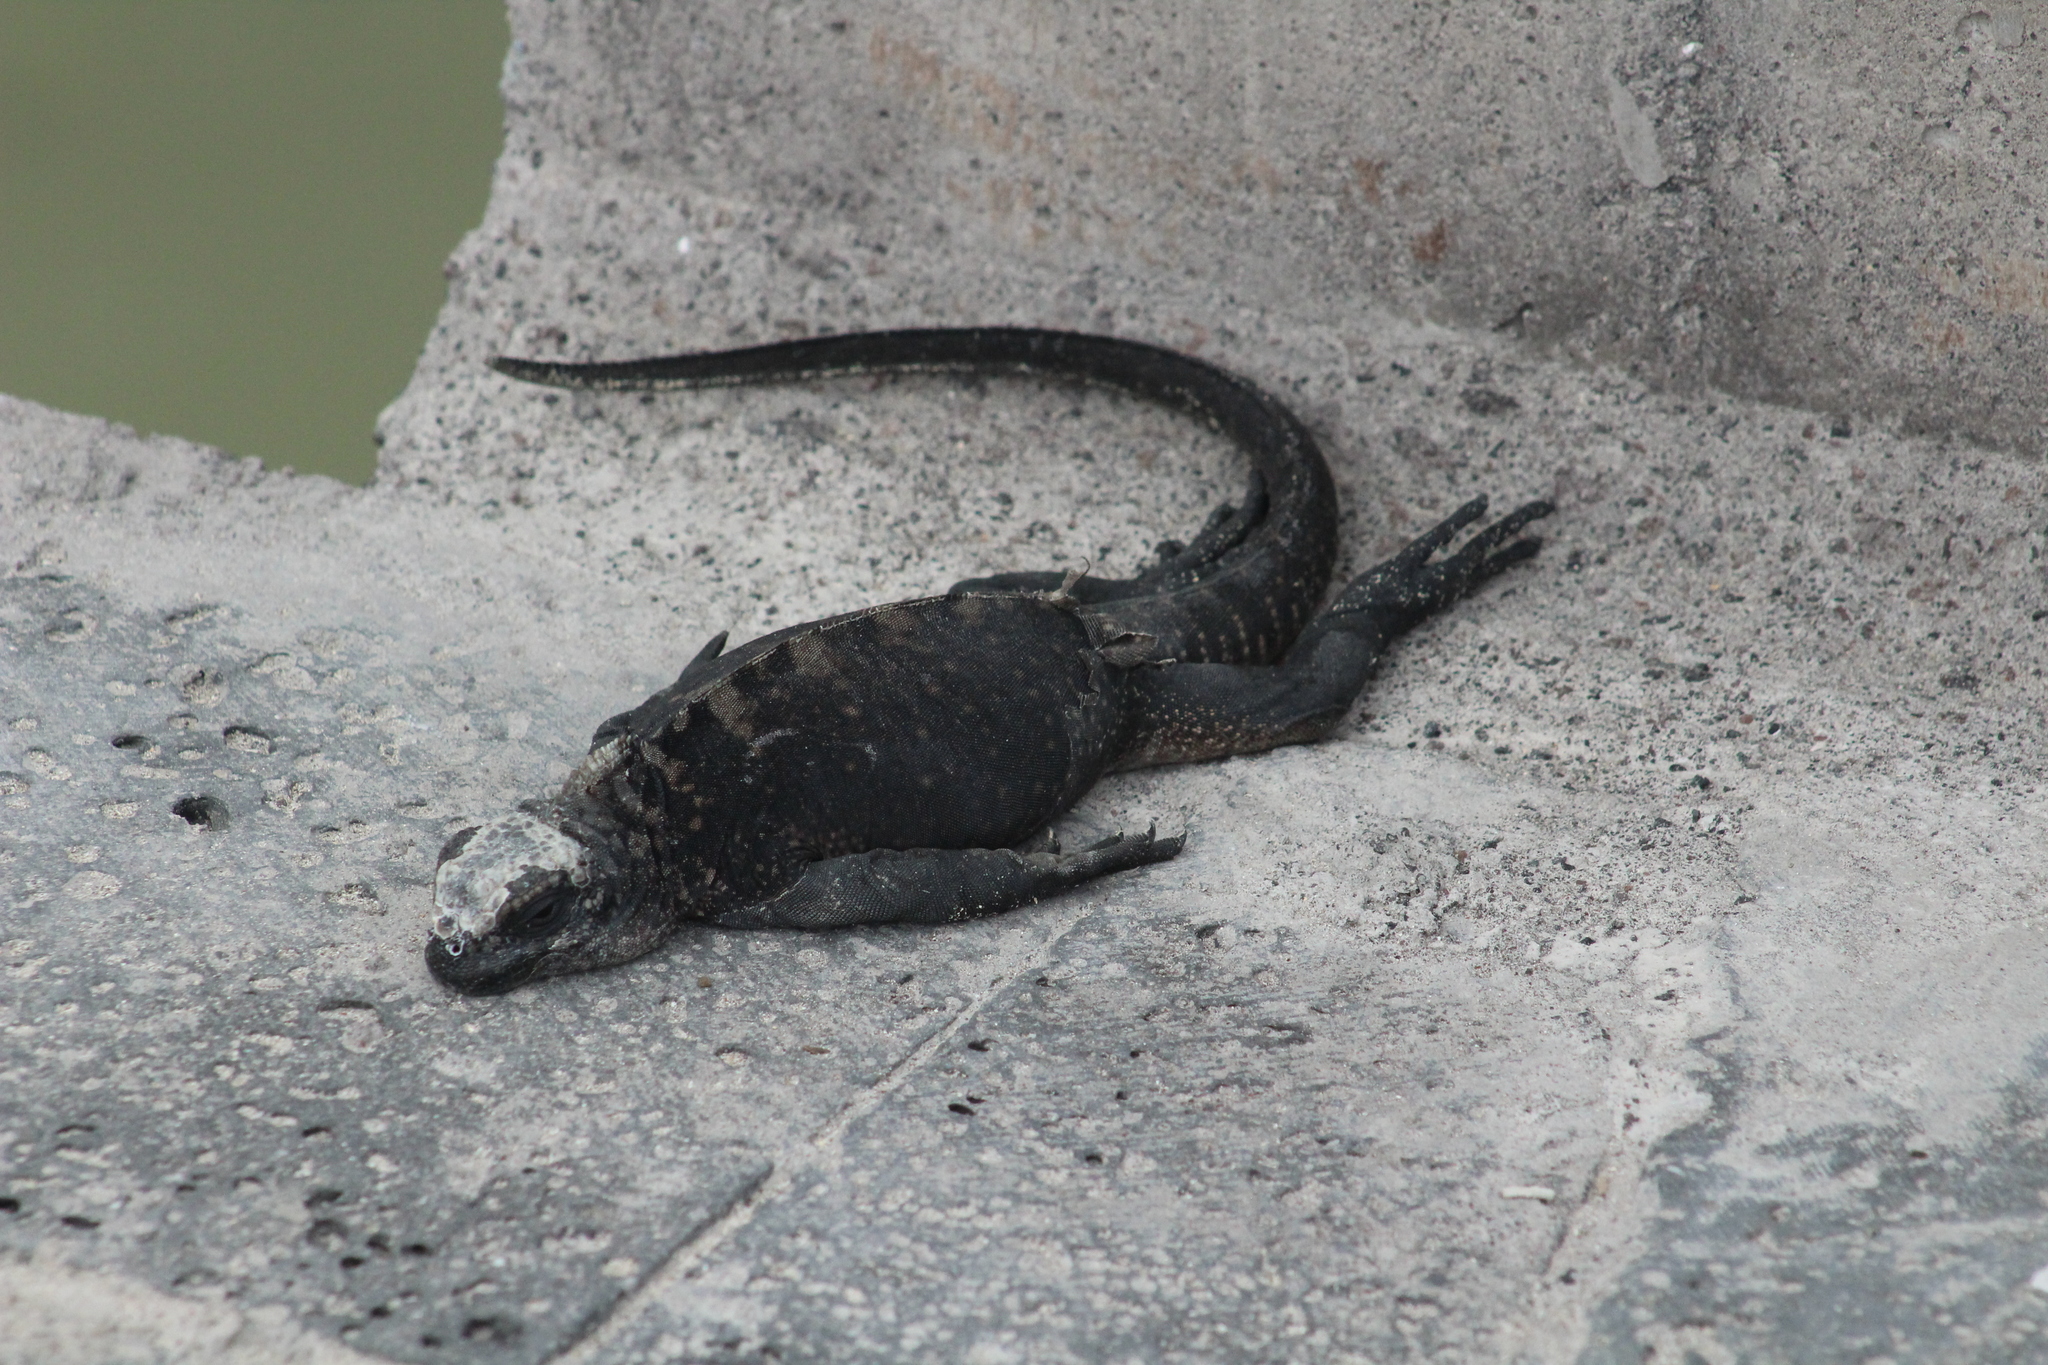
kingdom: Animalia
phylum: Chordata
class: Squamata
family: Iguanidae
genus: Amblyrhynchus
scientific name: Amblyrhynchus cristatus
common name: Marine iguana
